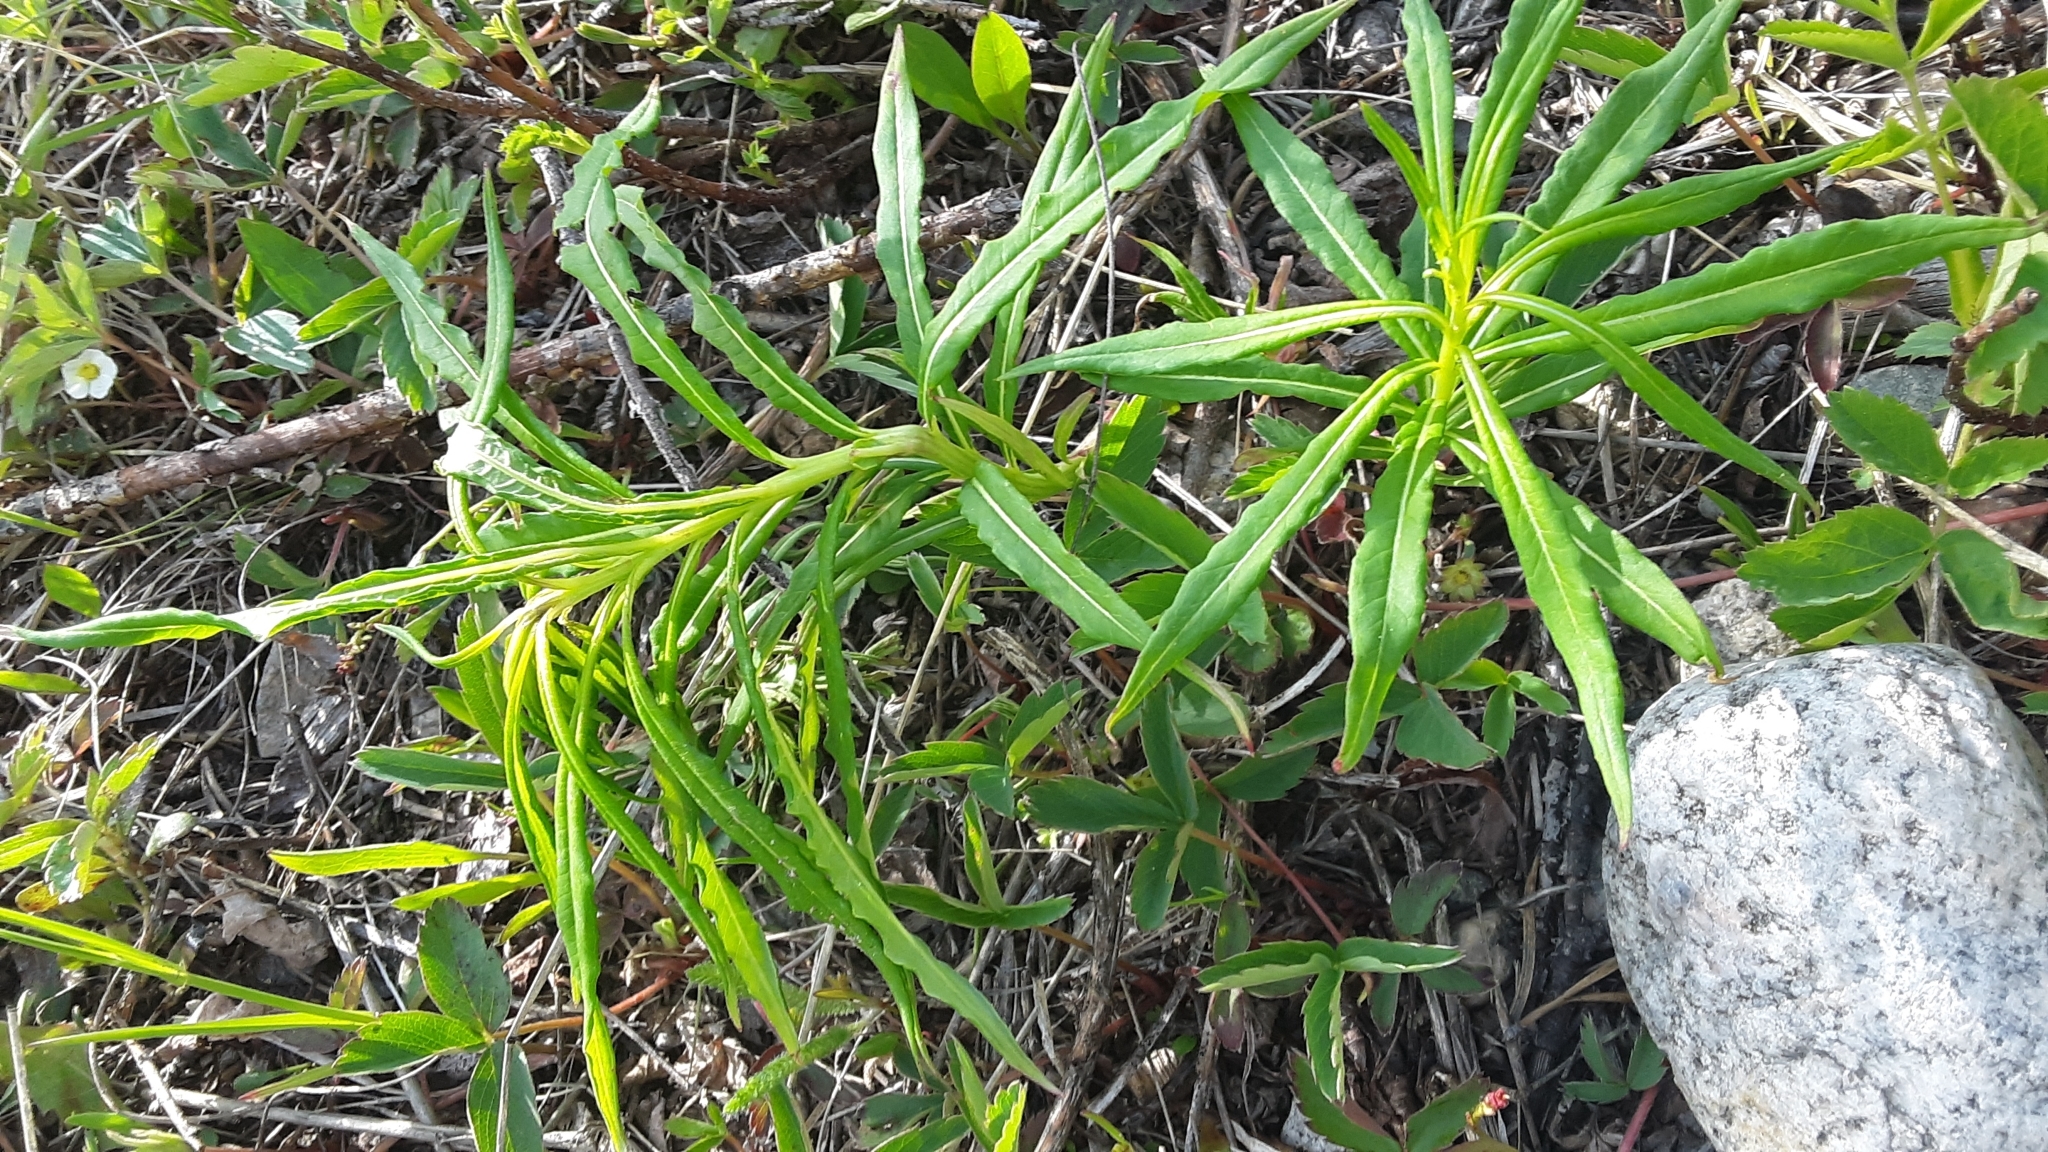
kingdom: Plantae
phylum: Tracheophyta
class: Magnoliopsida
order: Myrtales
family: Onagraceae
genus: Chamaenerion
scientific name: Chamaenerion angustifolium
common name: Fireweed
